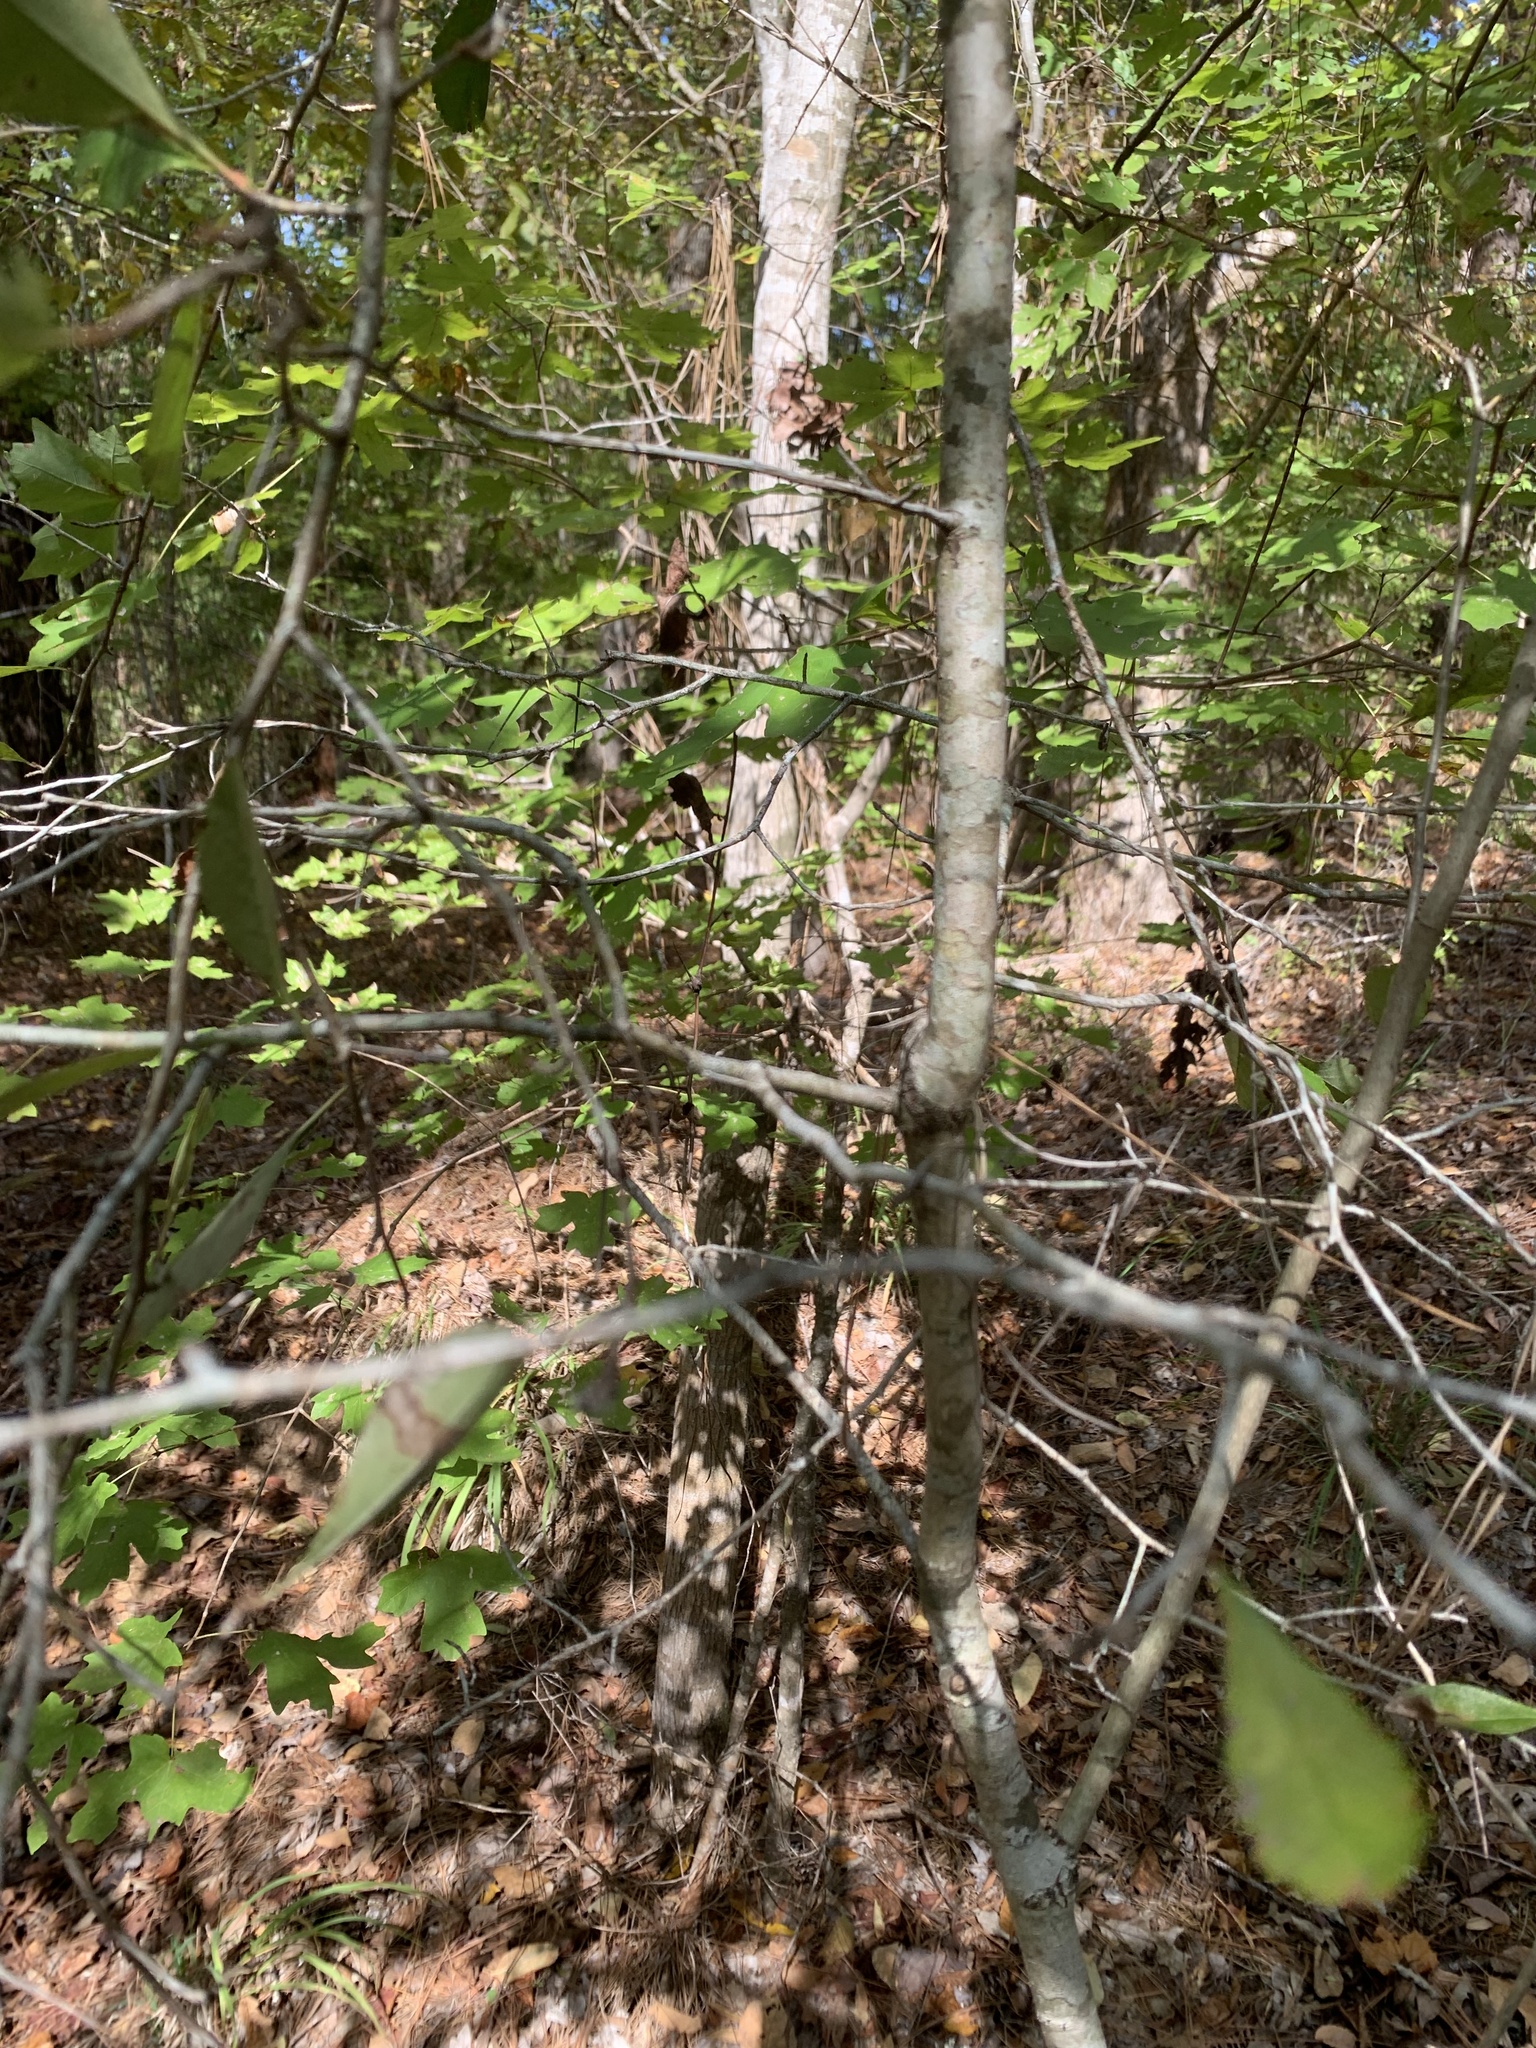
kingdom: Plantae
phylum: Tracheophyta
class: Magnoliopsida
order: Rosales
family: Rosaceae
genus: Crataegus
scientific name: Crataegus berberifolia
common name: Barberry hawthorn
